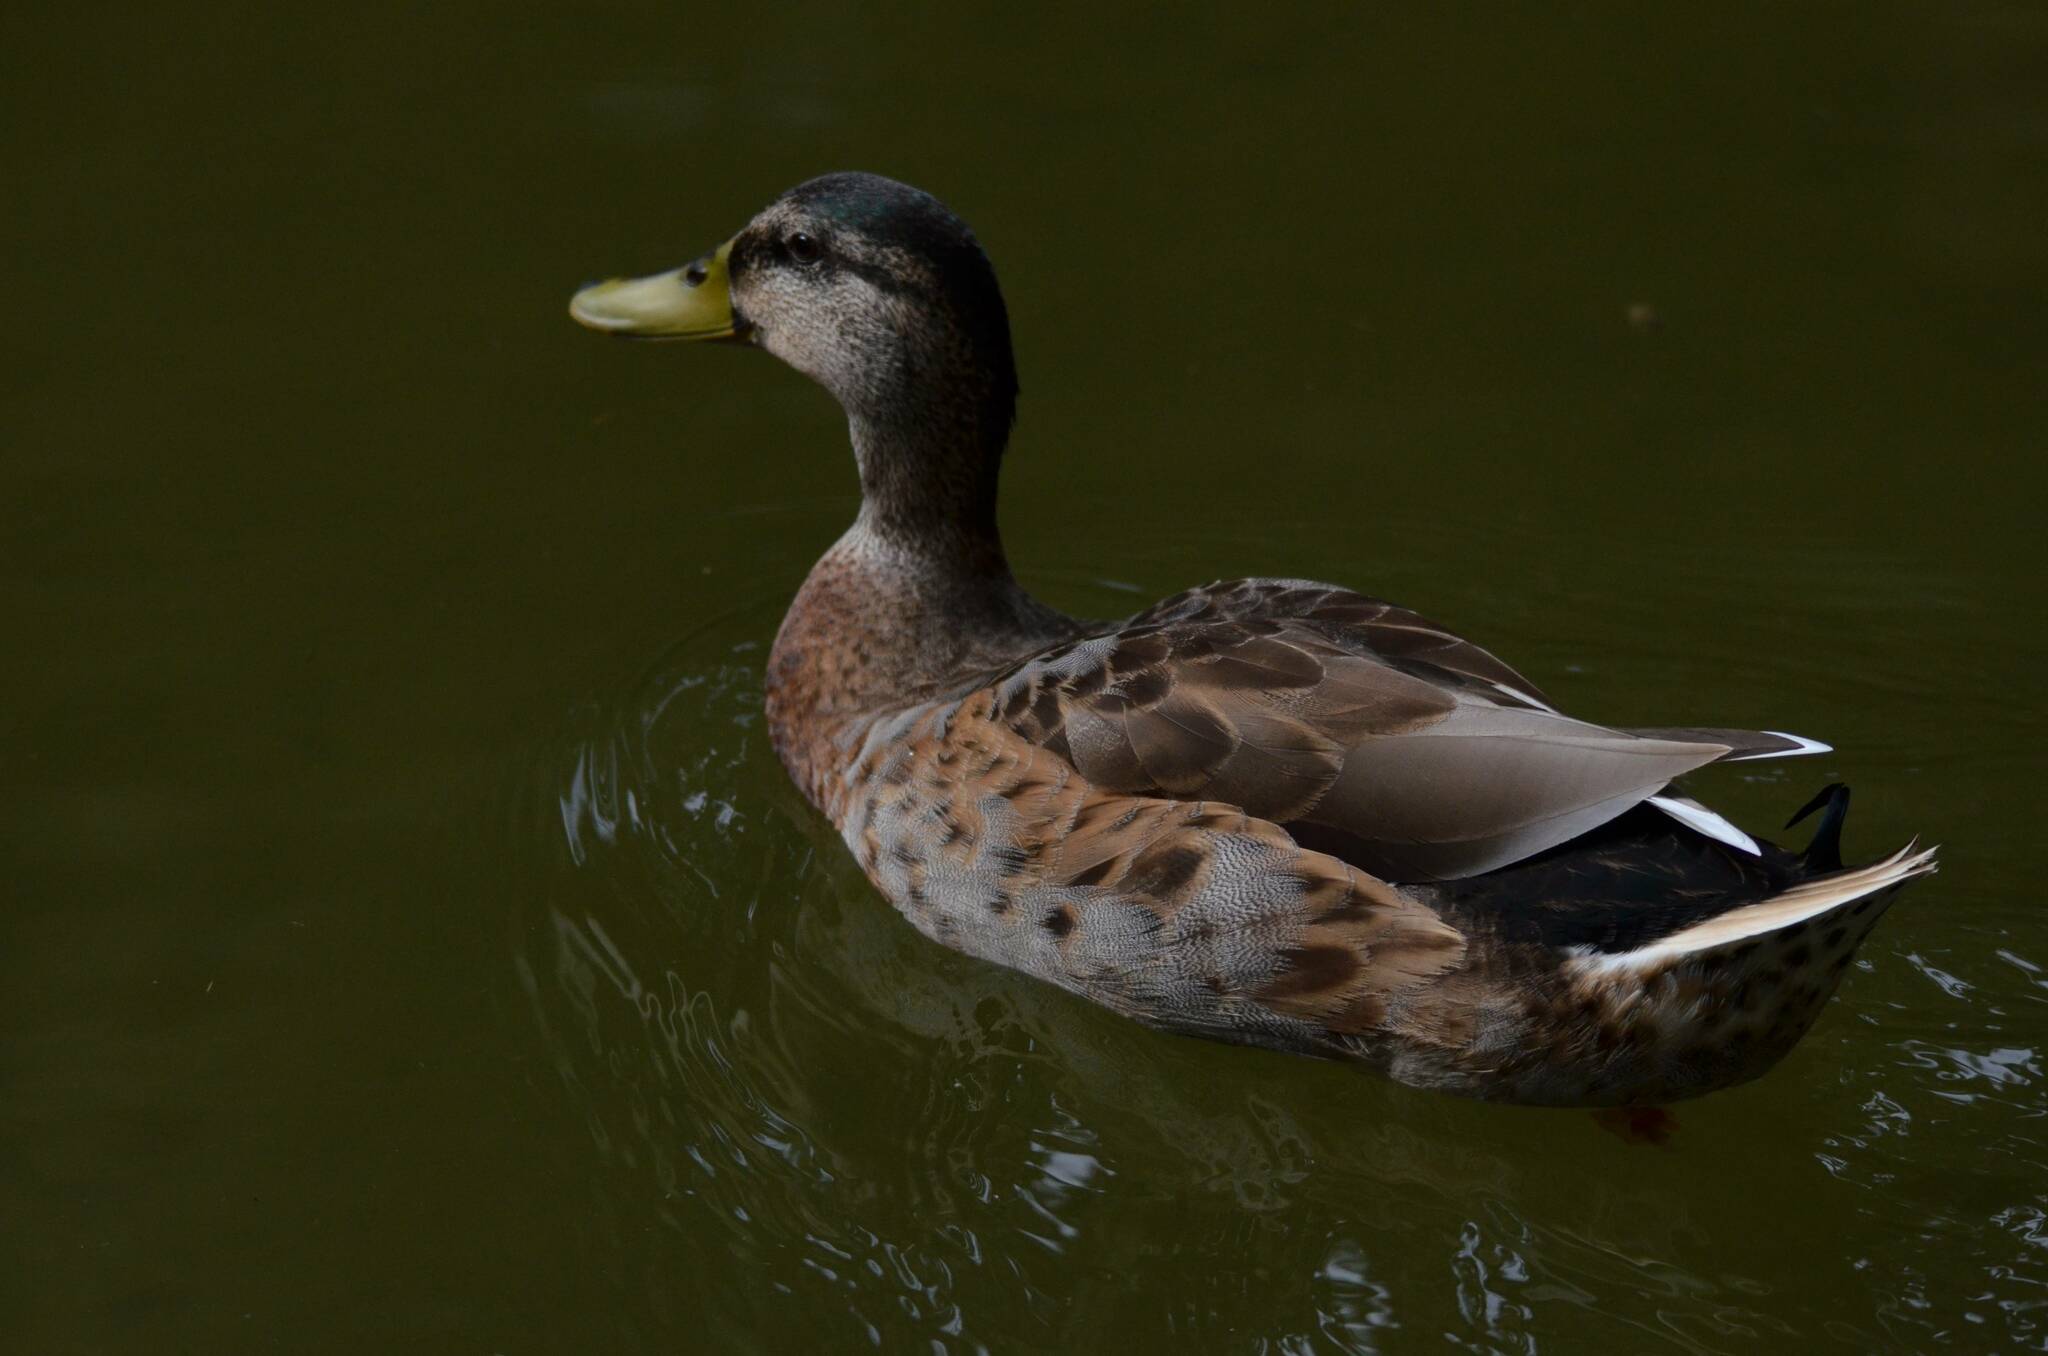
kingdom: Animalia
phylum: Chordata
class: Aves
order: Anseriformes
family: Anatidae
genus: Anas
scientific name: Anas platyrhynchos
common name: Mallard
